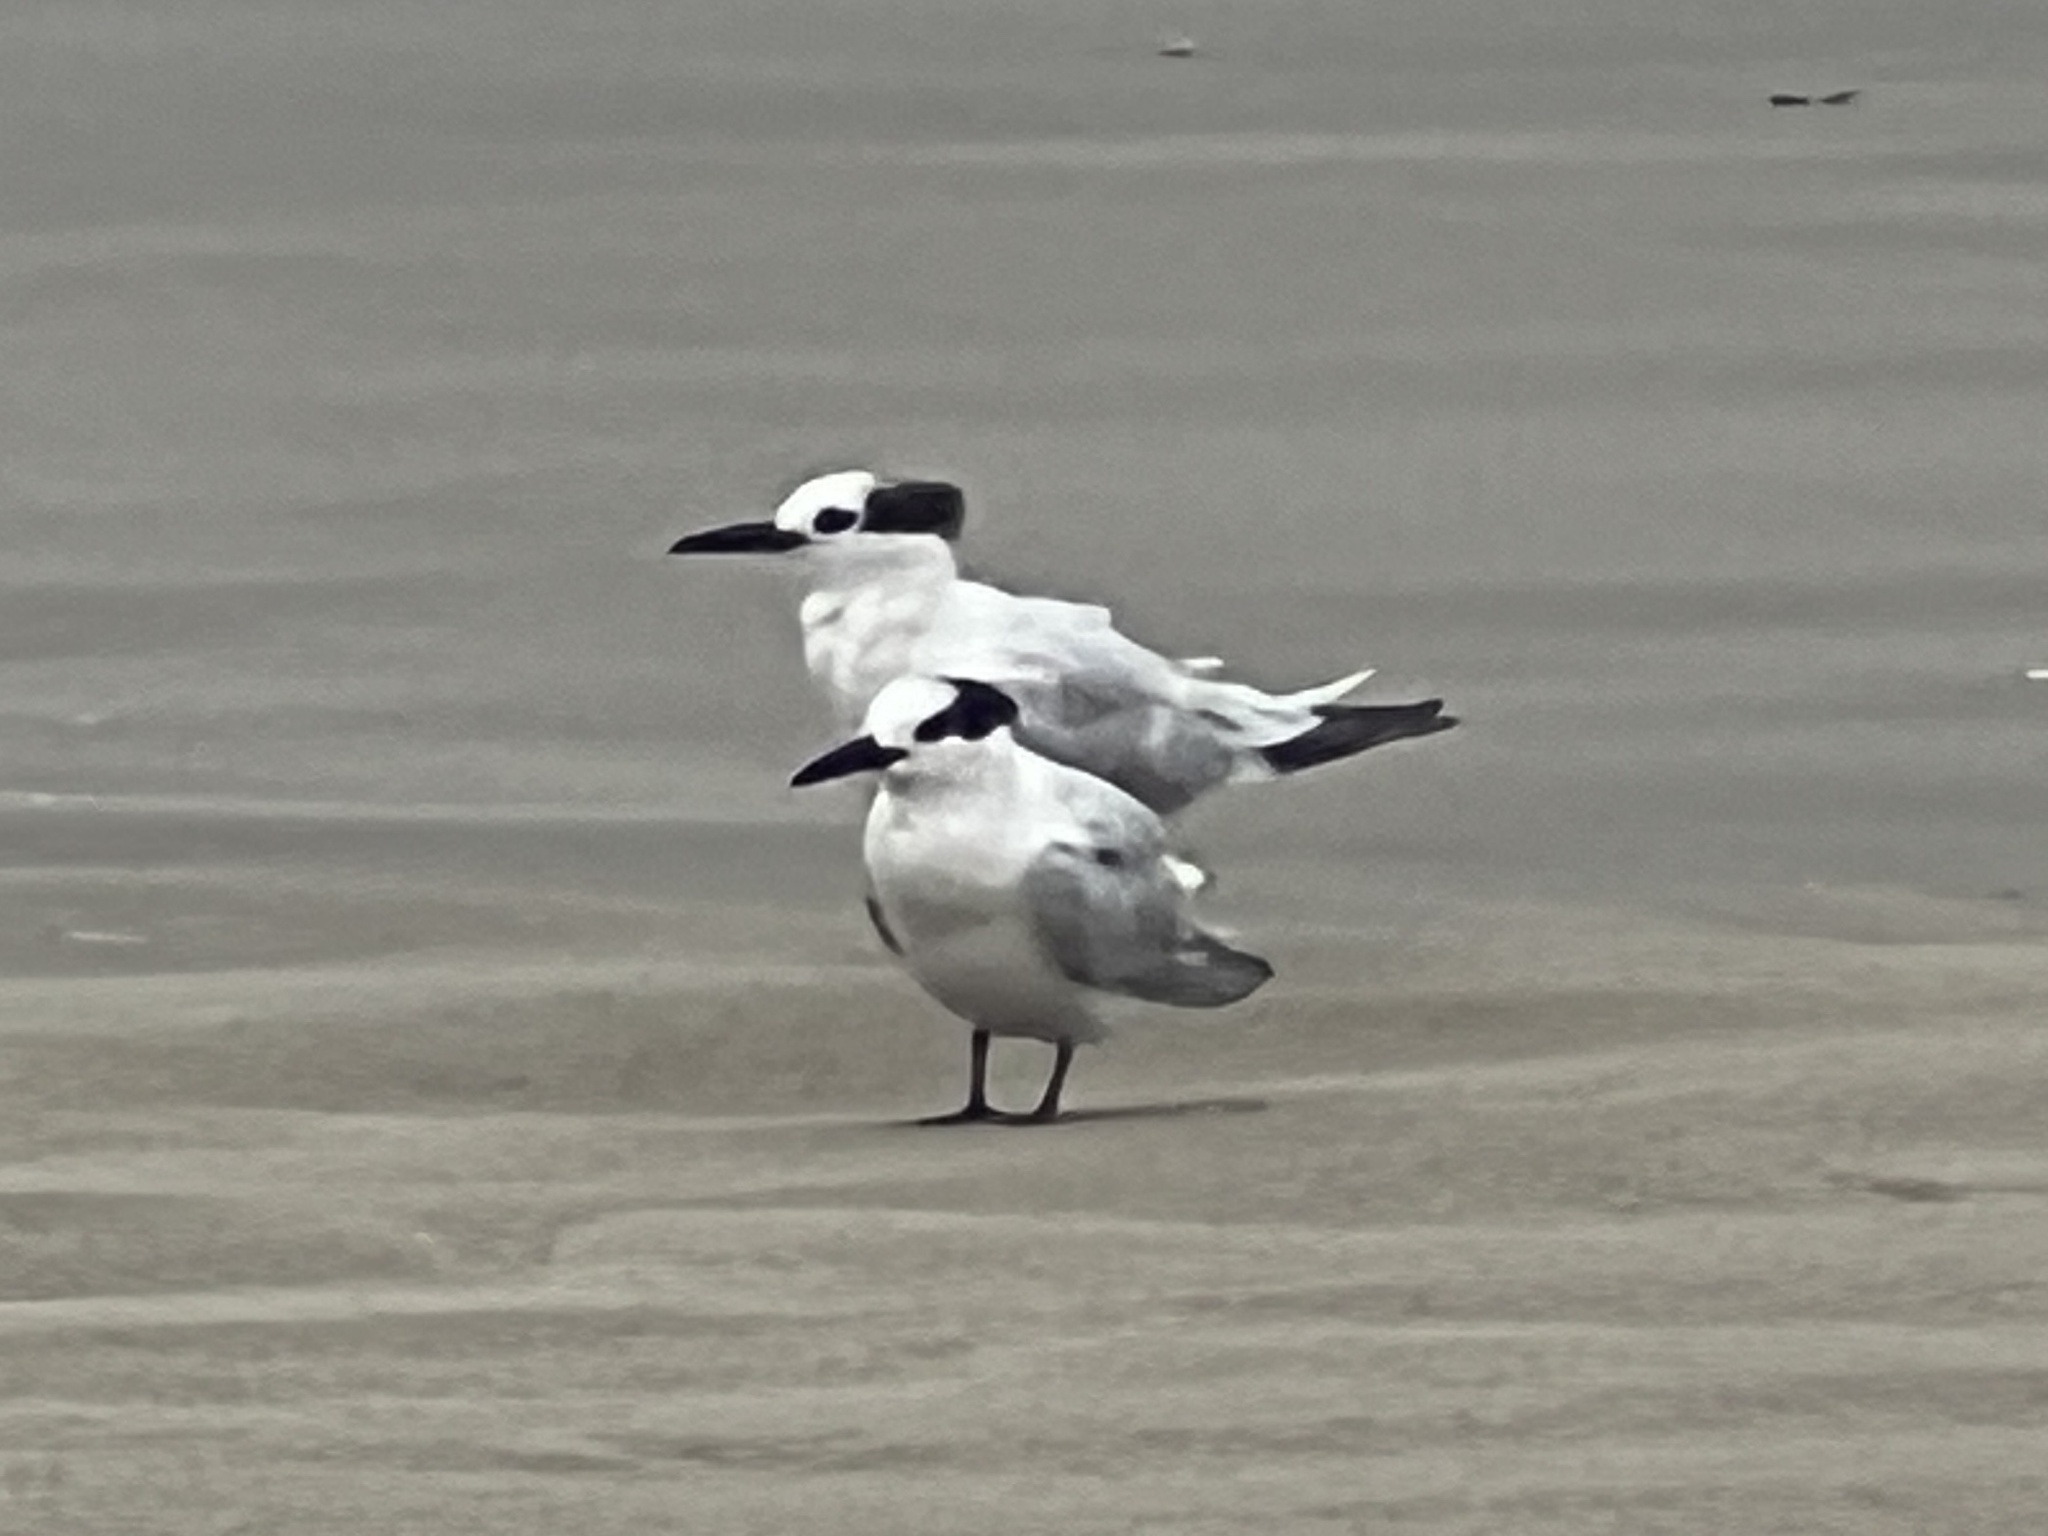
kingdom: Animalia
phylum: Chordata
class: Aves
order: Charadriiformes
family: Laridae
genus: Thalasseus
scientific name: Thalasseus sandvicensis
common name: Sandwich tern
